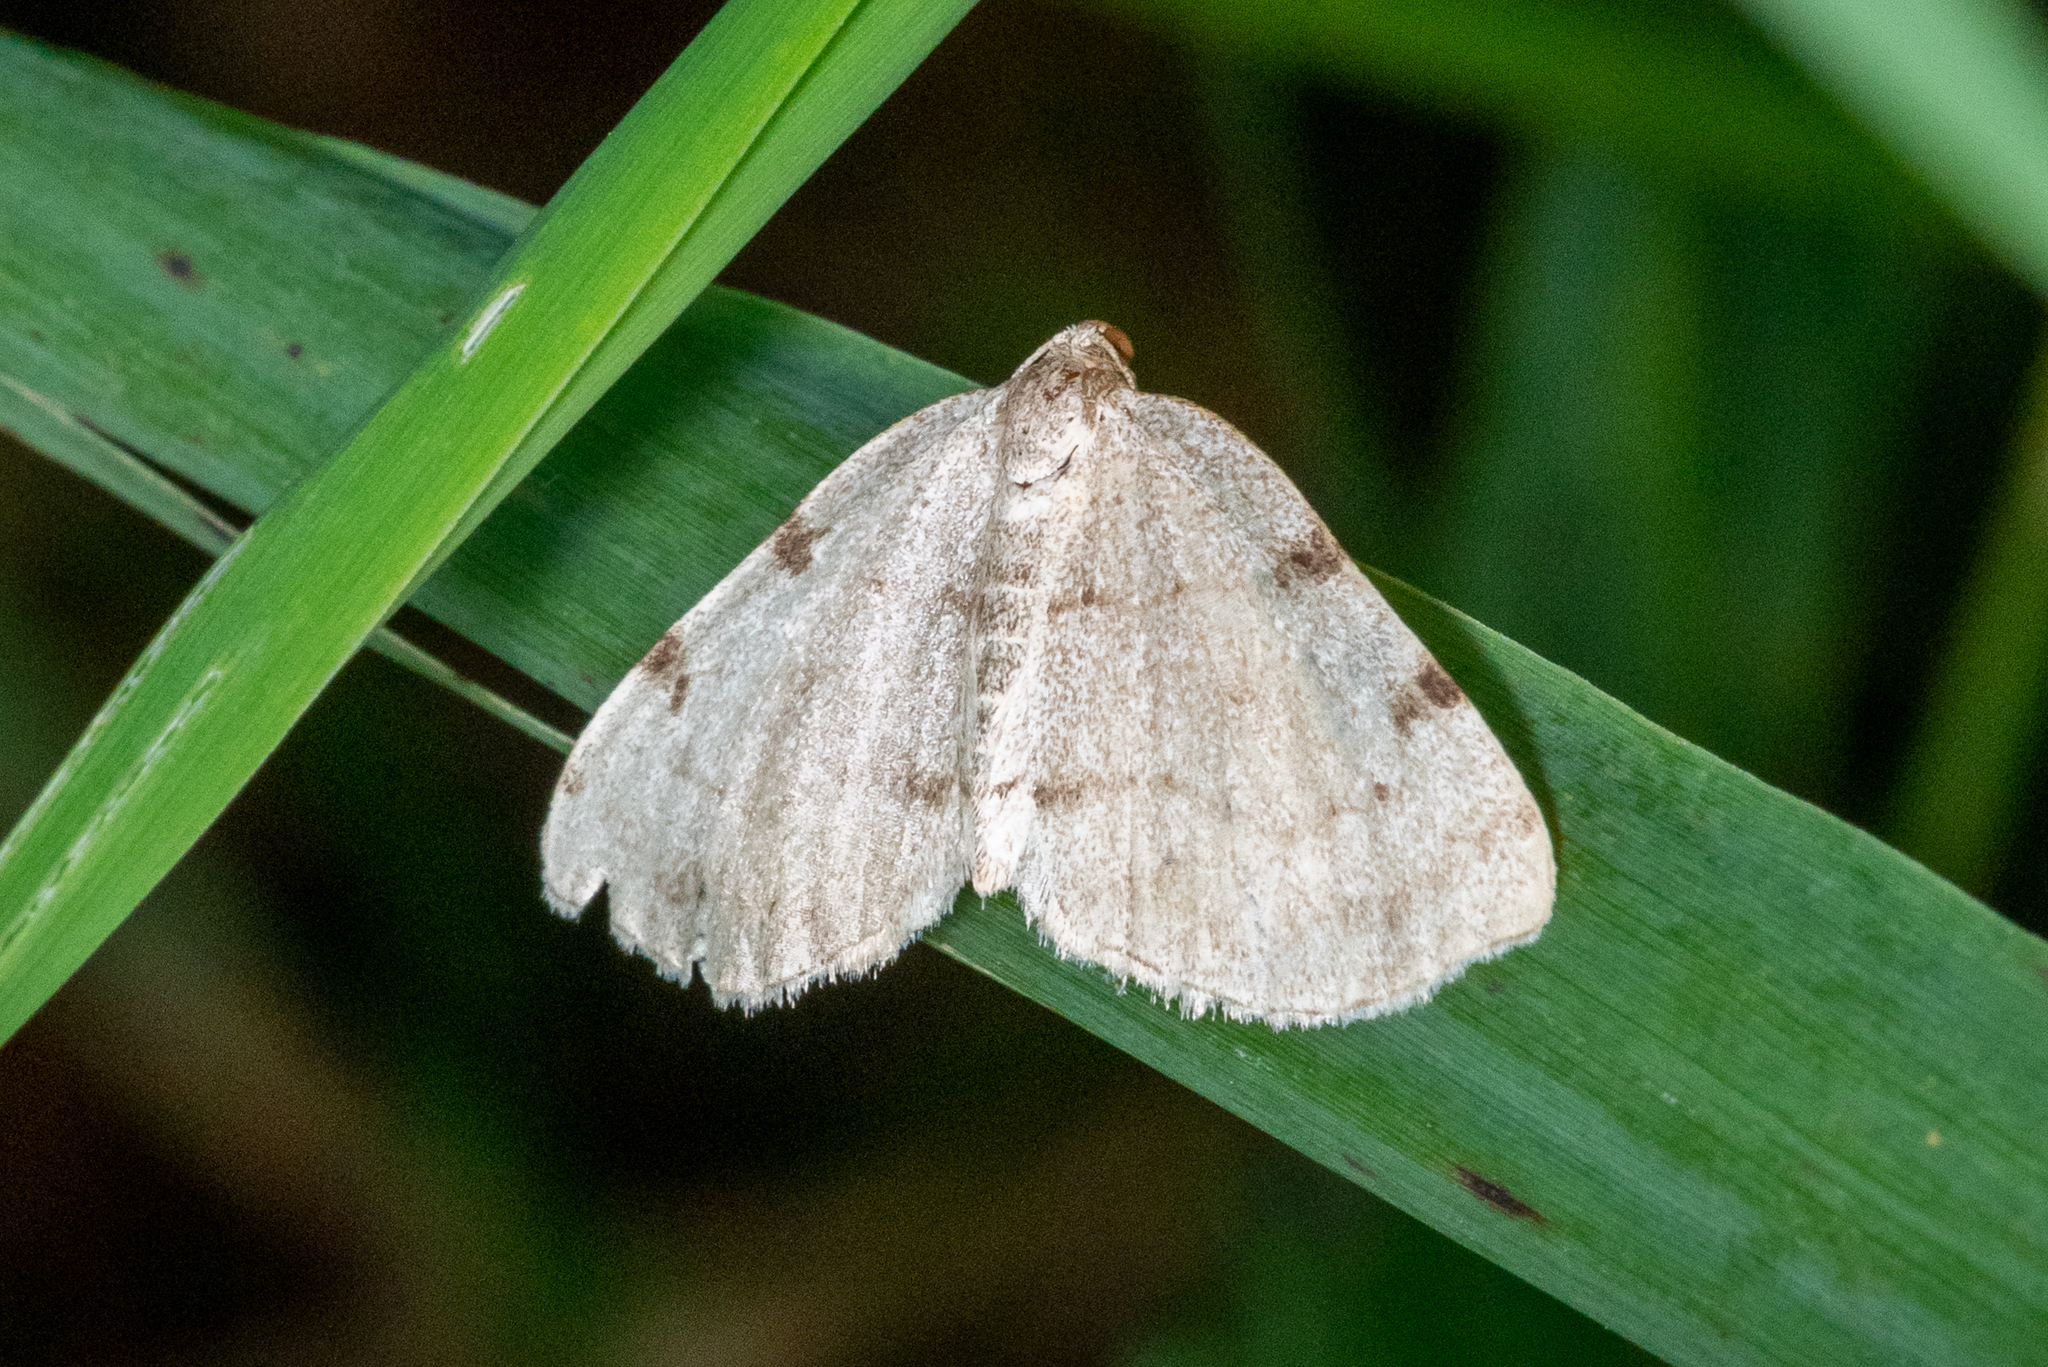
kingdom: Animalia
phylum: Arthropoda
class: Insecta
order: Lepidoptera
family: Geometridae
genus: Heterophleps
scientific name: Heterophleps refusaria
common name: Three-patched bigwing
